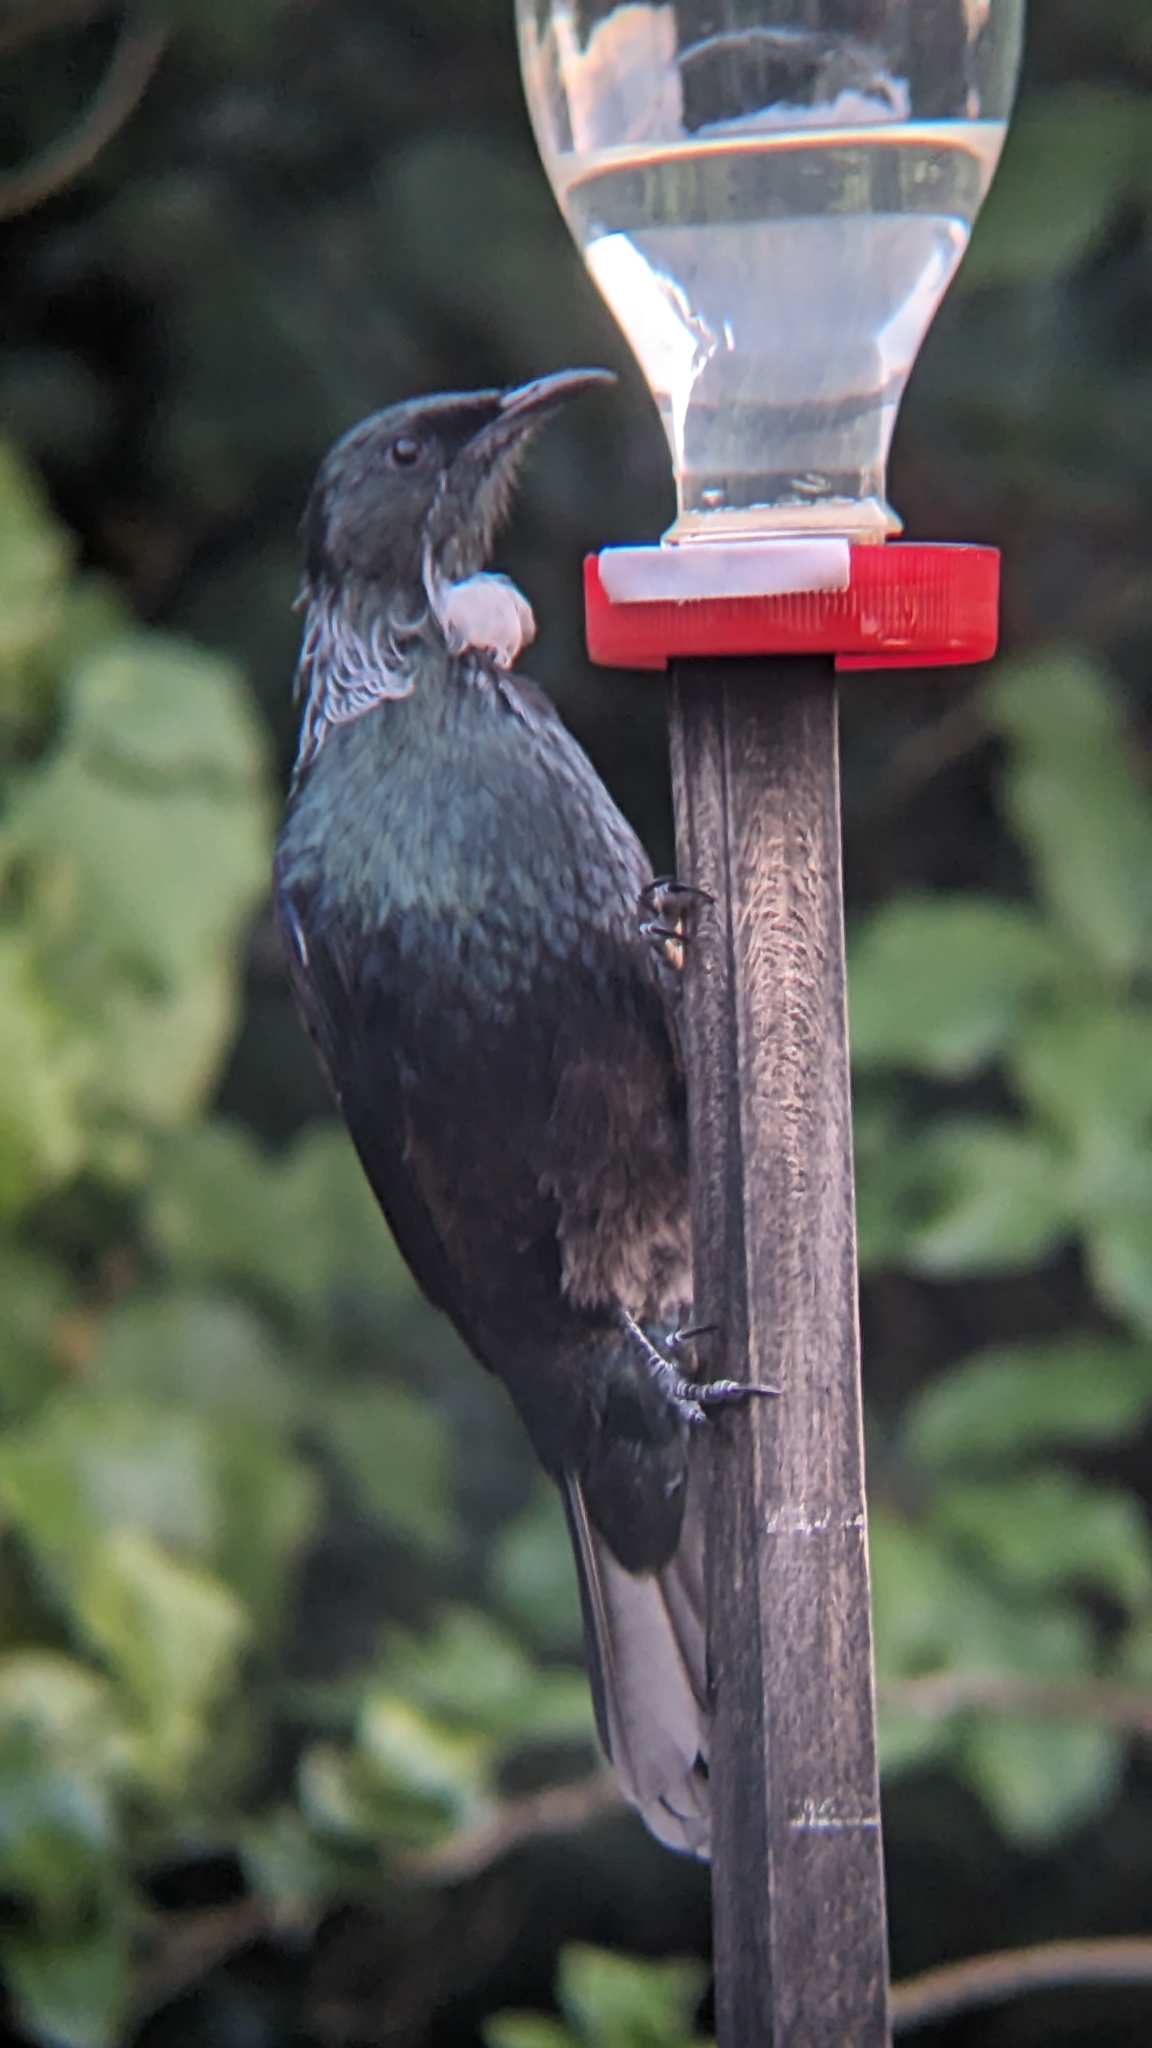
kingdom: Animalia
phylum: Chordata
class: Aves
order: Passeriformes
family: Meliphagidae
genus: Prosthemadera
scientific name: Prosthemadera novaeseelandiae
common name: Tui
